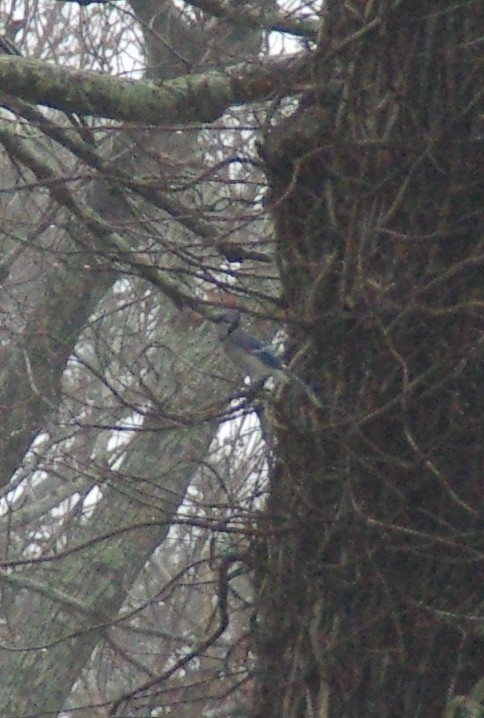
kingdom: Animalia
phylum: Chordata
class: Aves
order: Passeriformes
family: Corvidae
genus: Cyanocitta
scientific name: Cyanocitta cristata
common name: Blue jay
